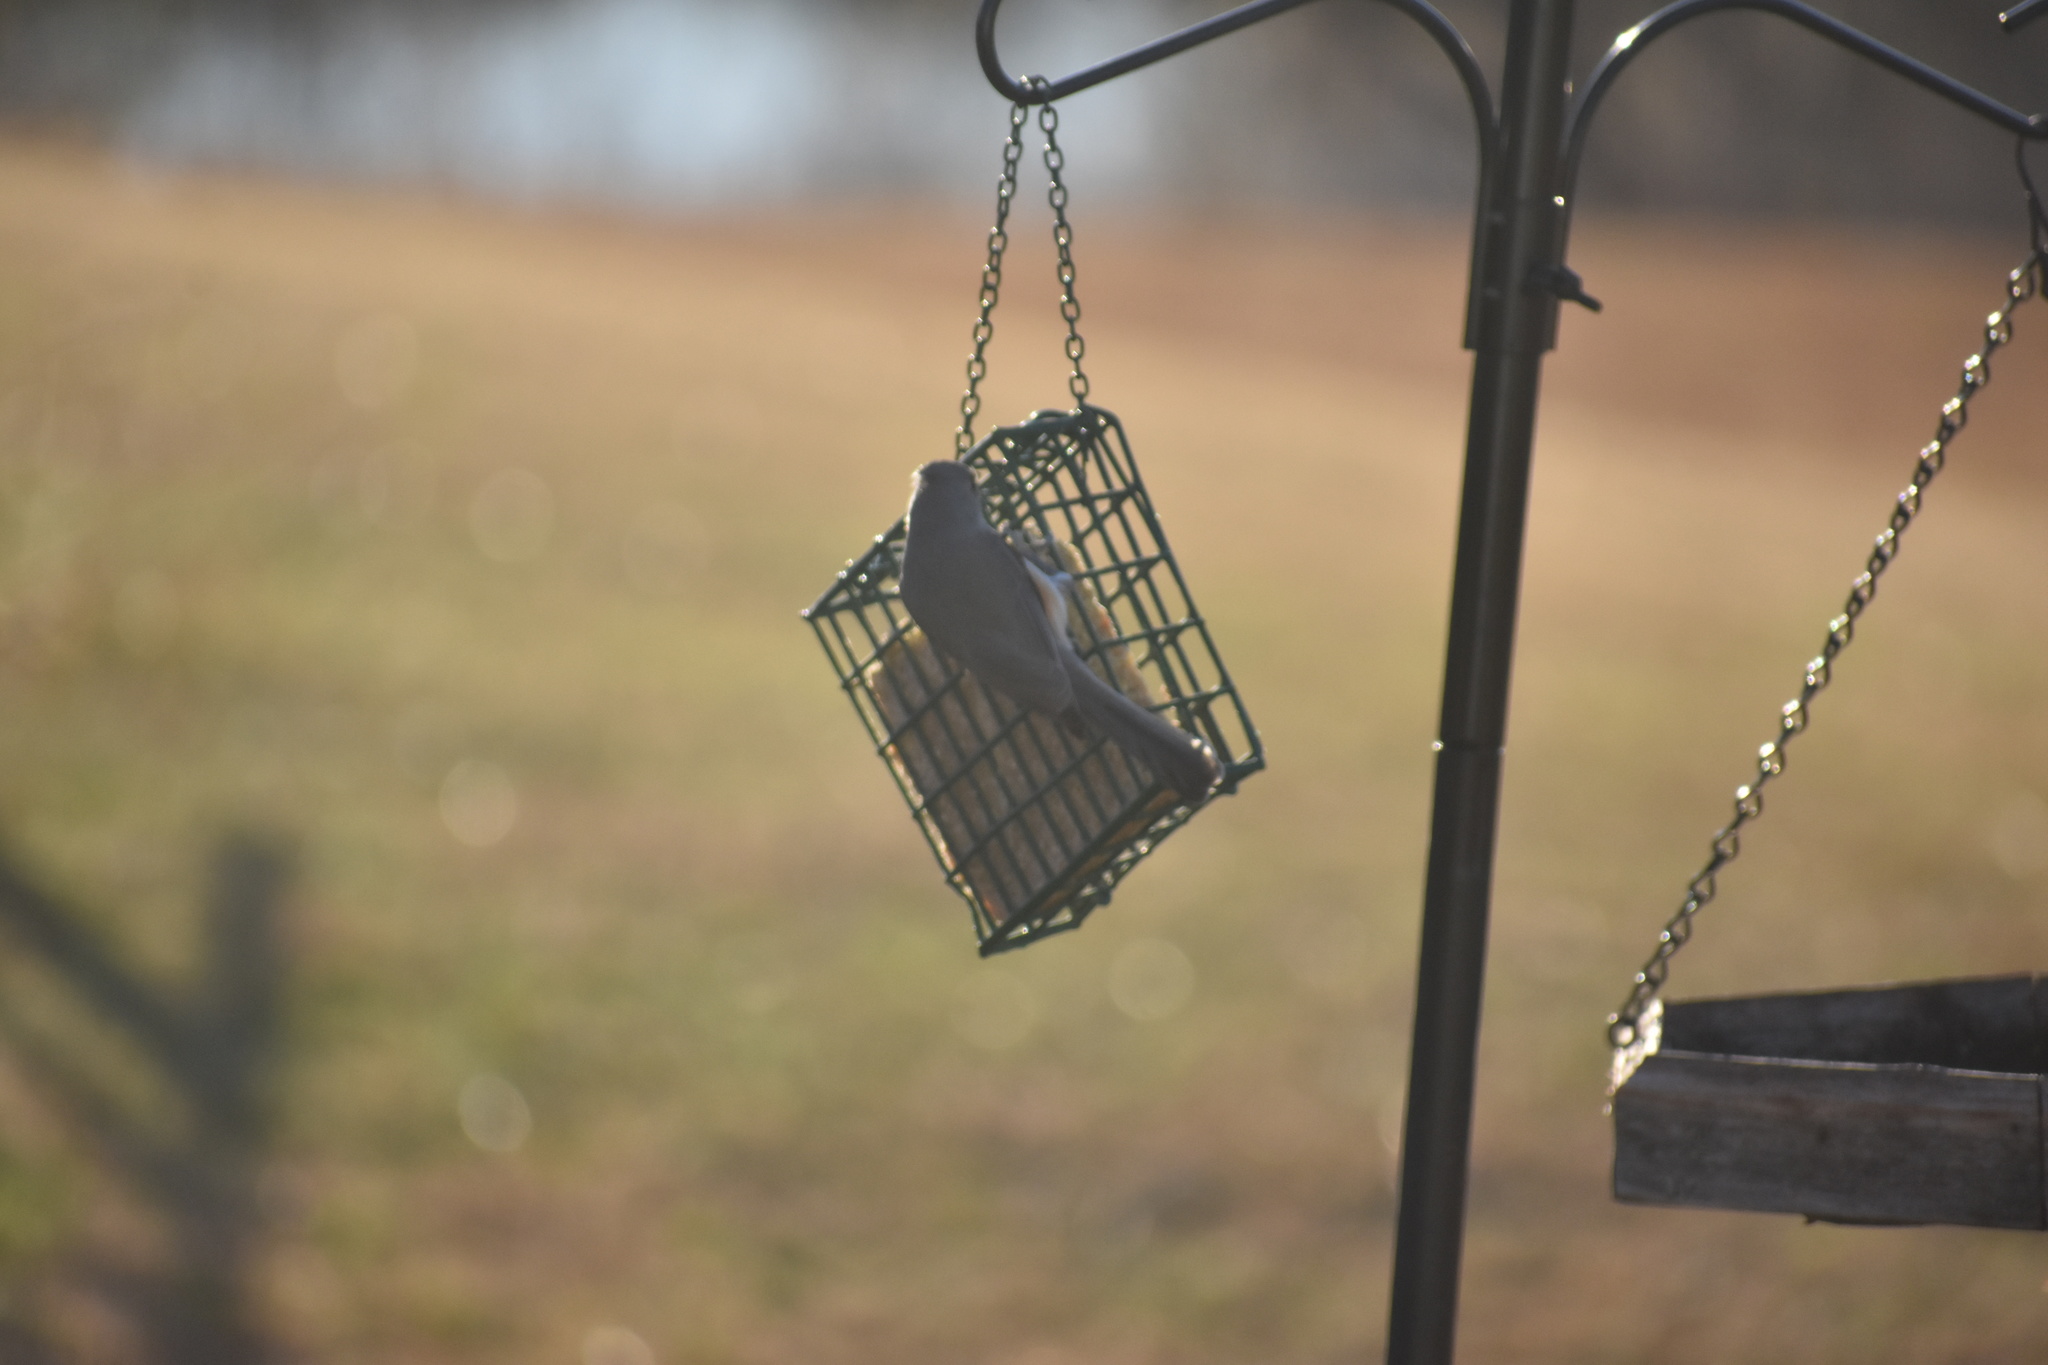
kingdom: Animalia
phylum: Chordata
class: Aves
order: Passeriformes
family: Paridae
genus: Baeolophus
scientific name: Baeolophus bicolor
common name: Tufted titmouse
